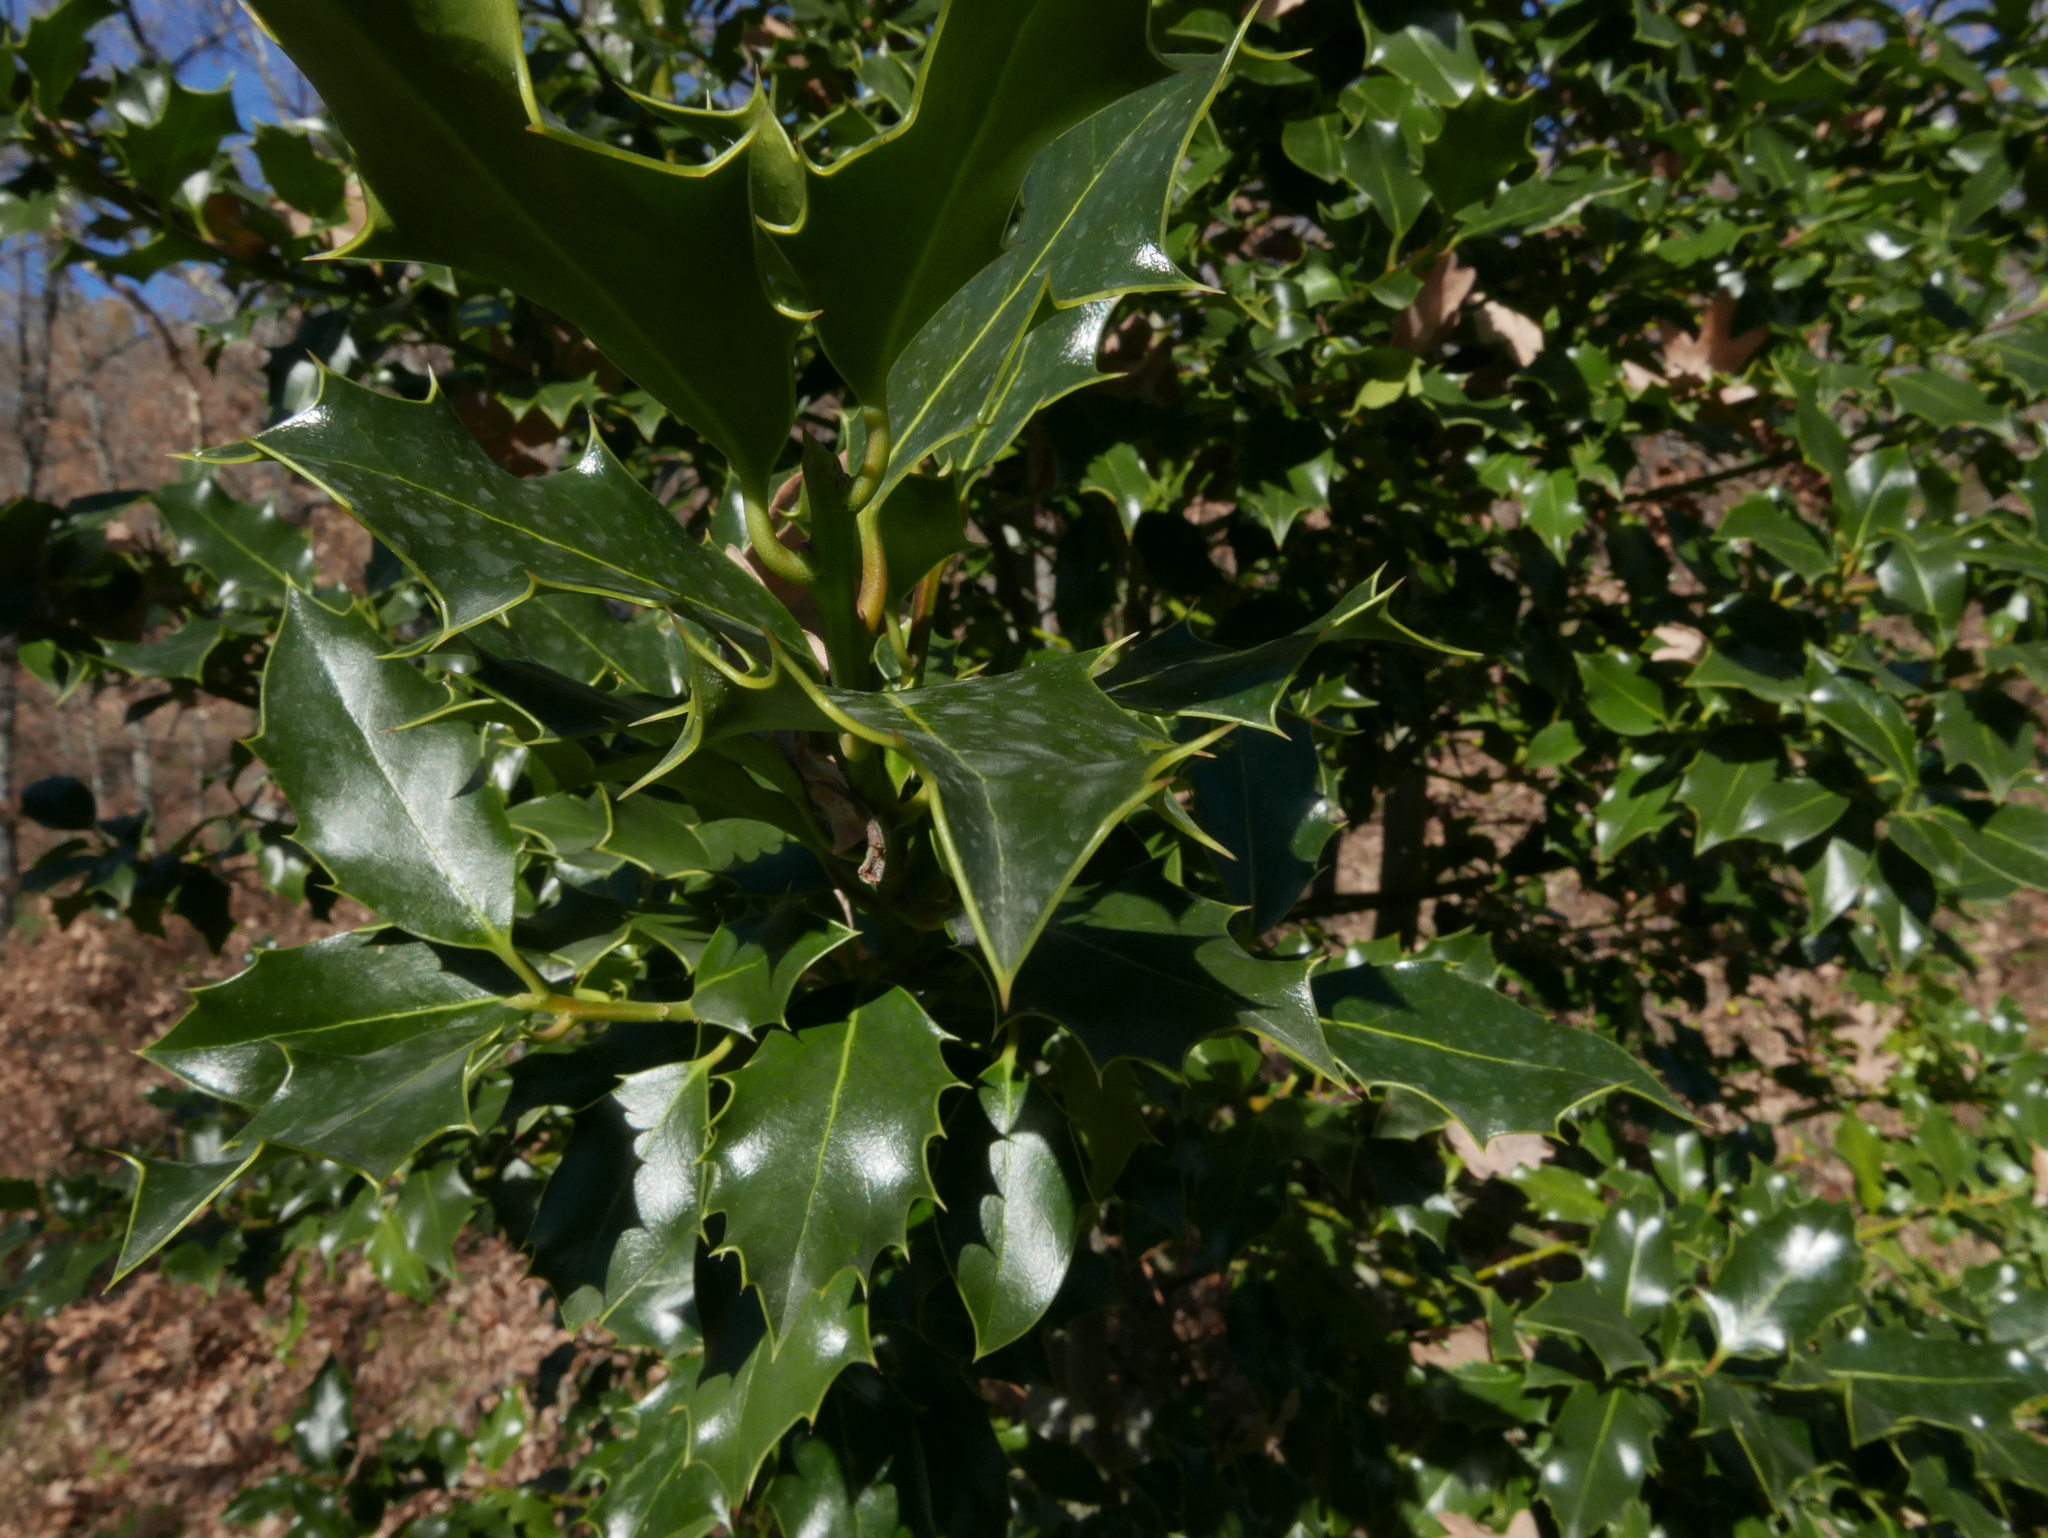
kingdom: Plantae
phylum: Tracheophyta
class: Magnoliopsida
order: Aquifoliales
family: Aquifoliaceae
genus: Ilex
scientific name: Ilex aquifolium
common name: English holly
